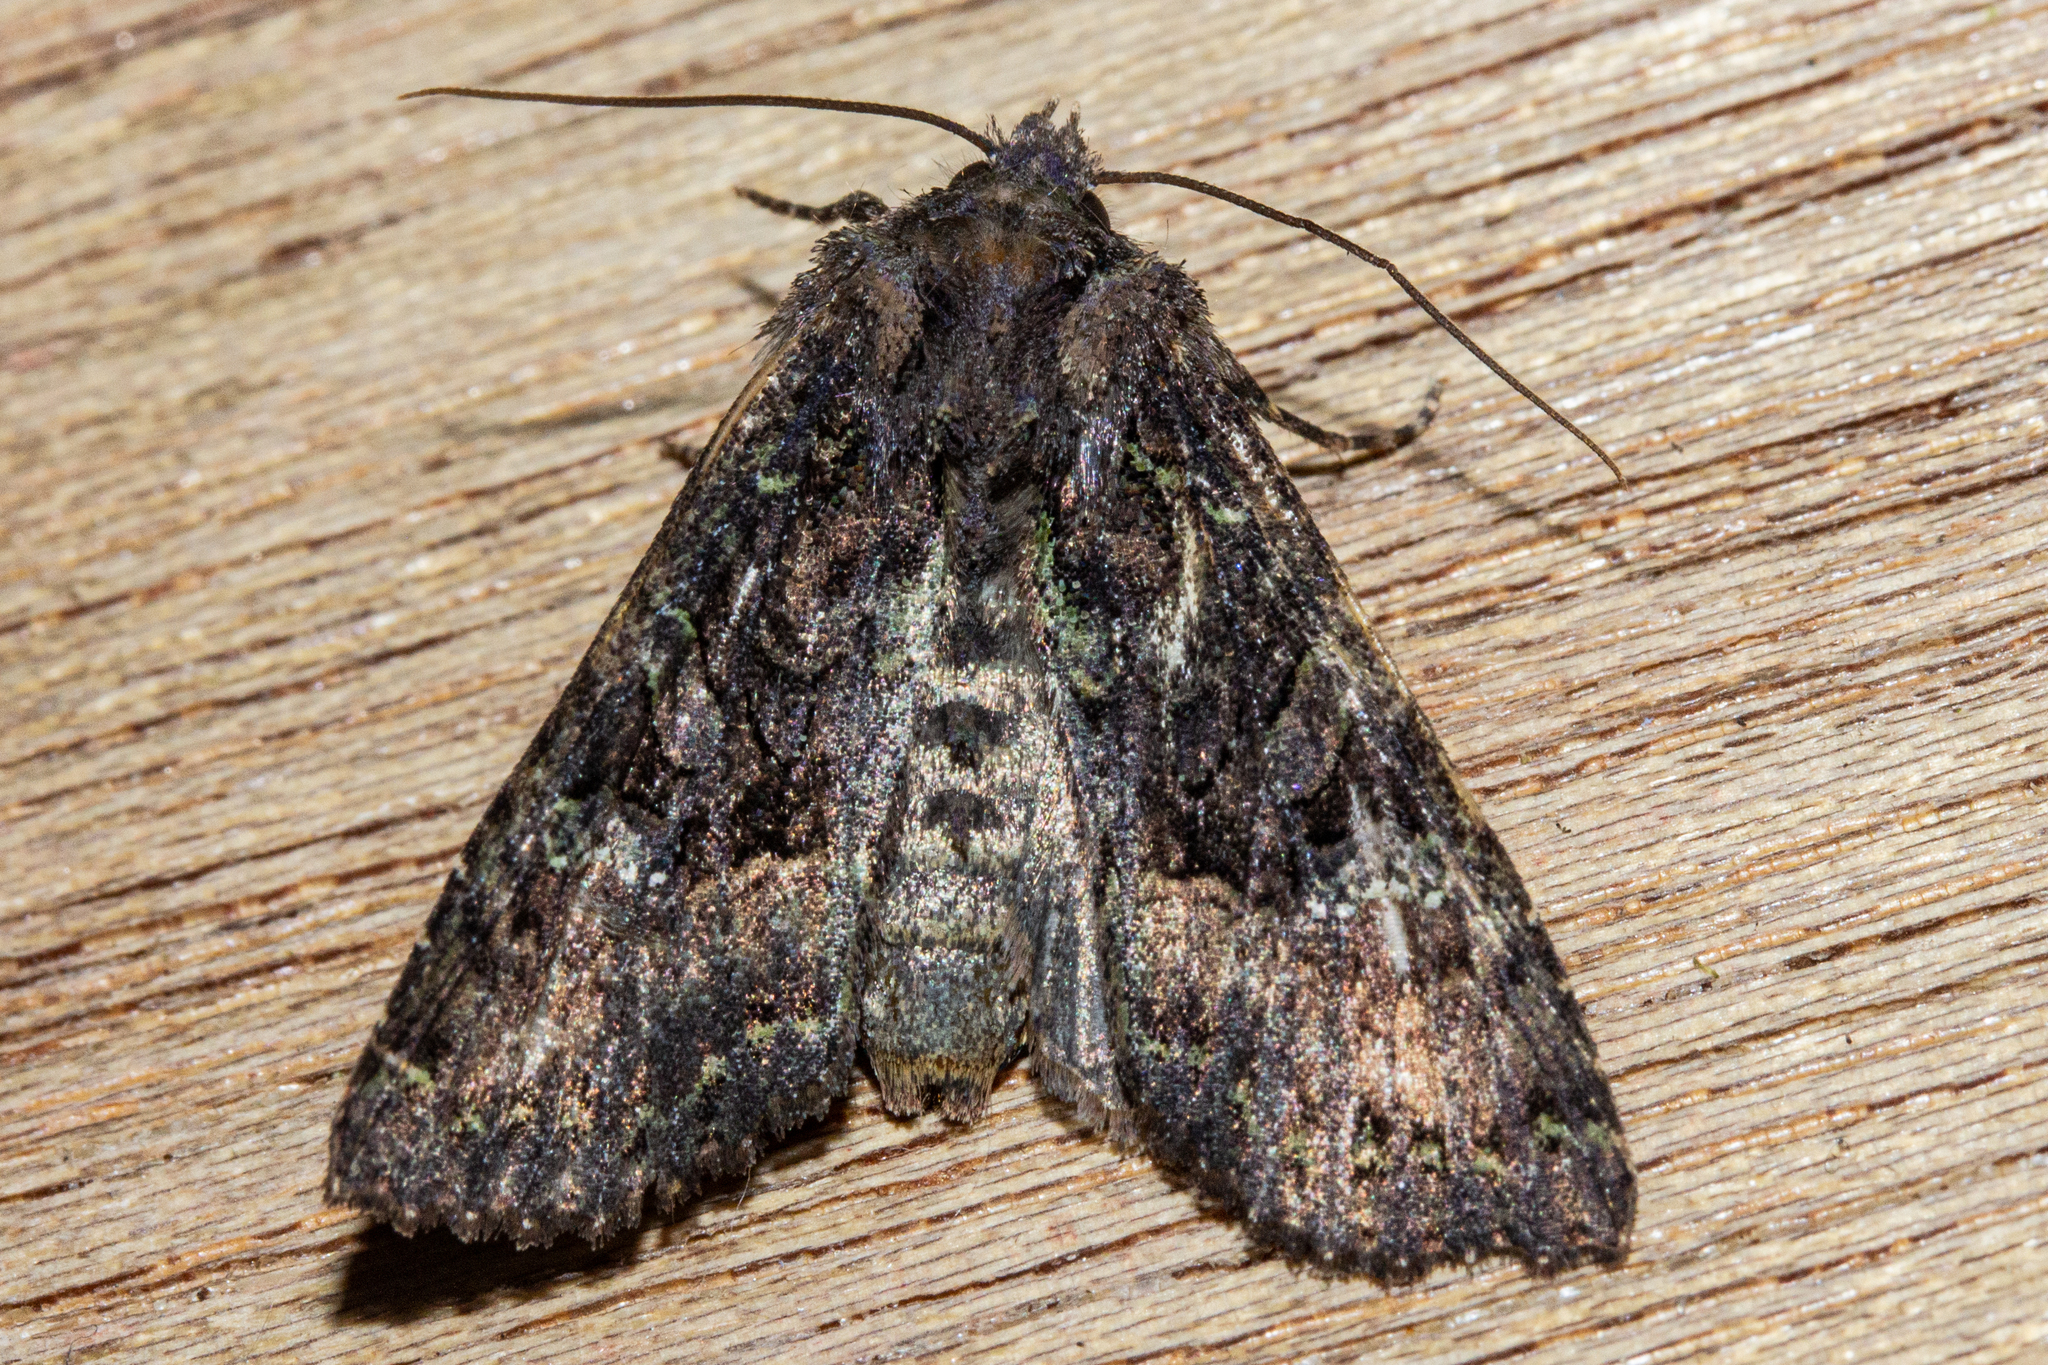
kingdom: Animalia
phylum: Arthropoda
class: Insecta
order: Lepidoptera
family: Noctuidae
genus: Meterana
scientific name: Meterana ochthistis
